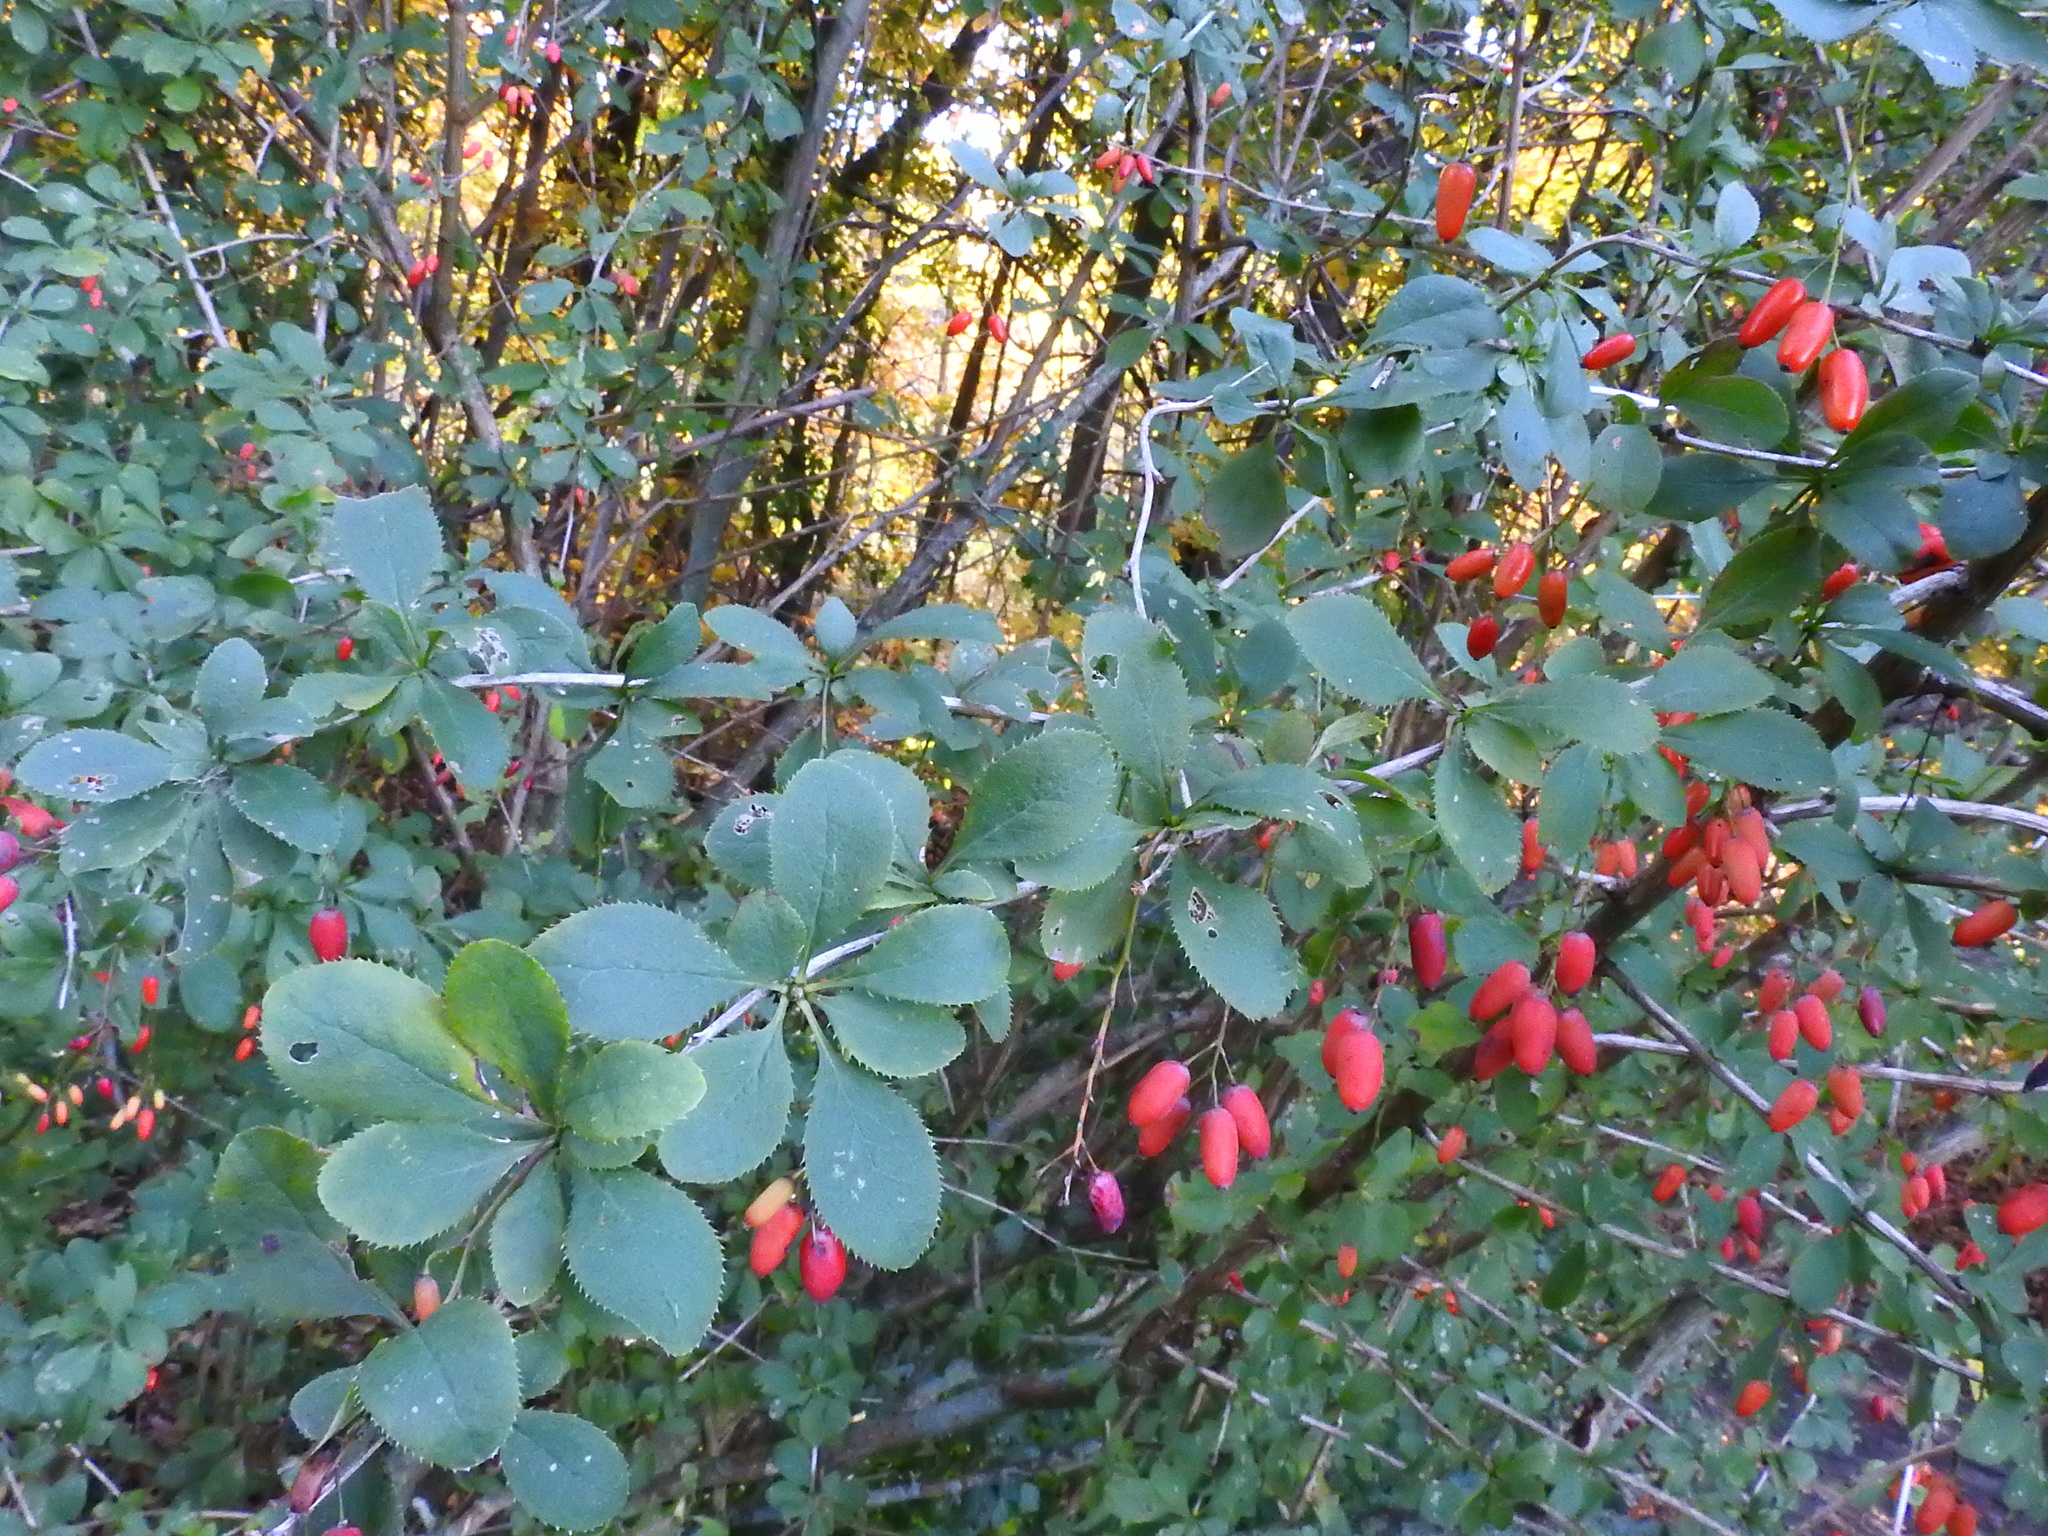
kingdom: Plantae
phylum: Tracheophyta
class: Magnoliopsida
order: Ranunculales
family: Berberidaceae
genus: Berberis
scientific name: Berberis vulgaris
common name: Barberry
